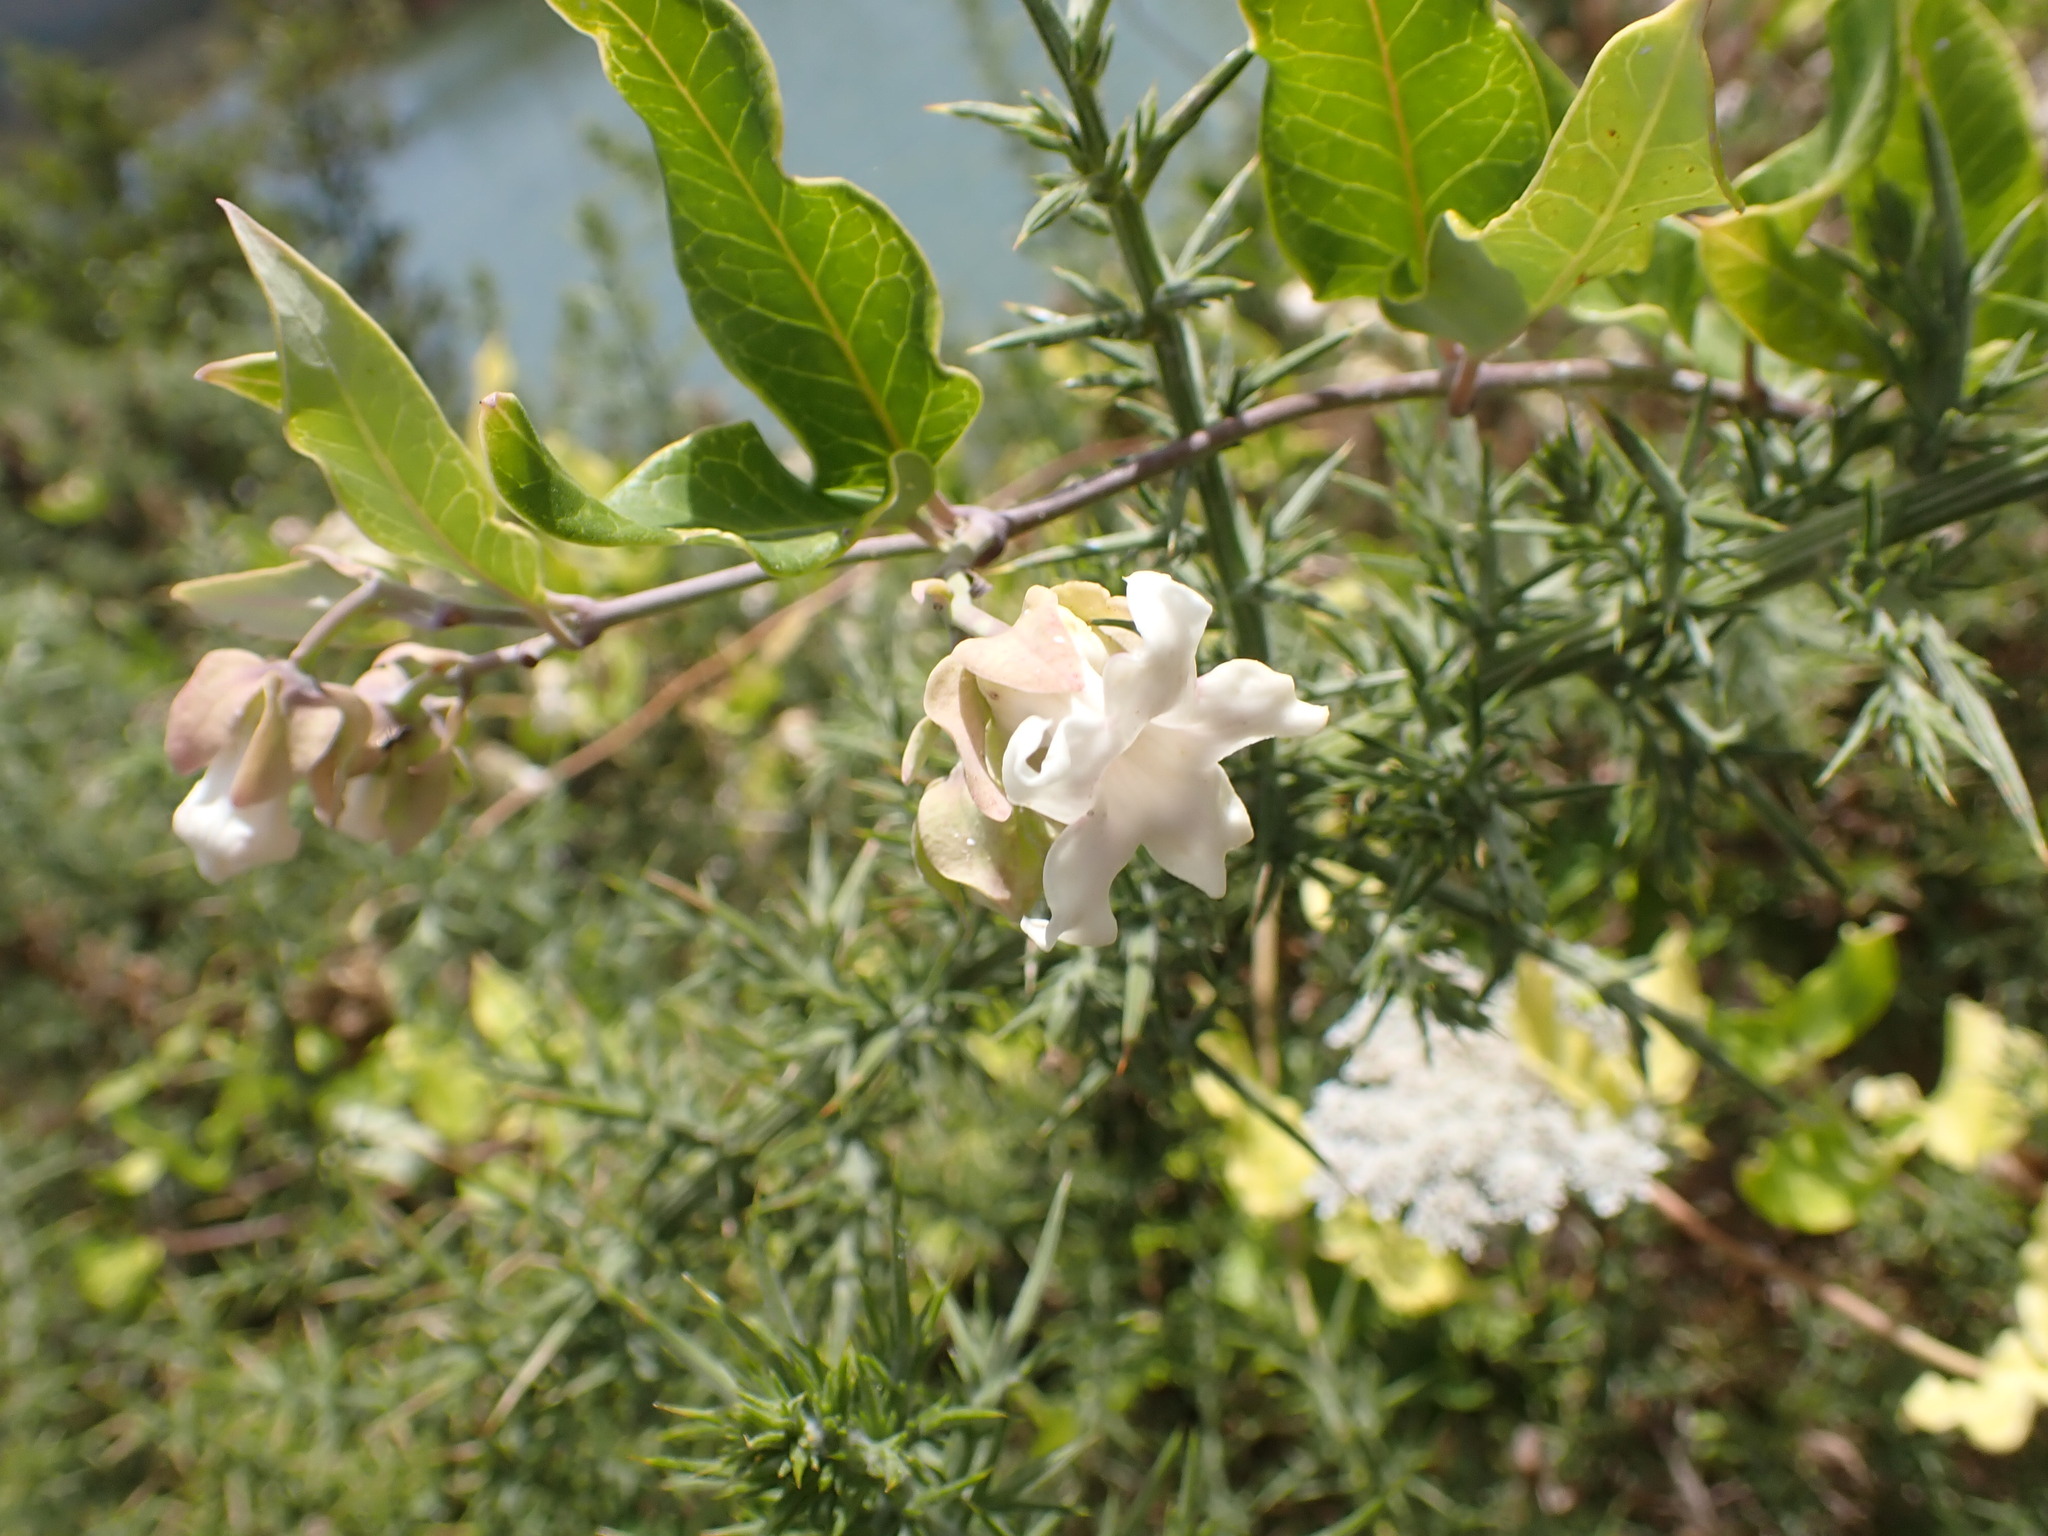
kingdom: Plantae
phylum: Tracheophyta
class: Magnoliopsida
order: Gentianales
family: Apocynaceae
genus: Araujia
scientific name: Araujia sericifera
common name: White bladderflower
